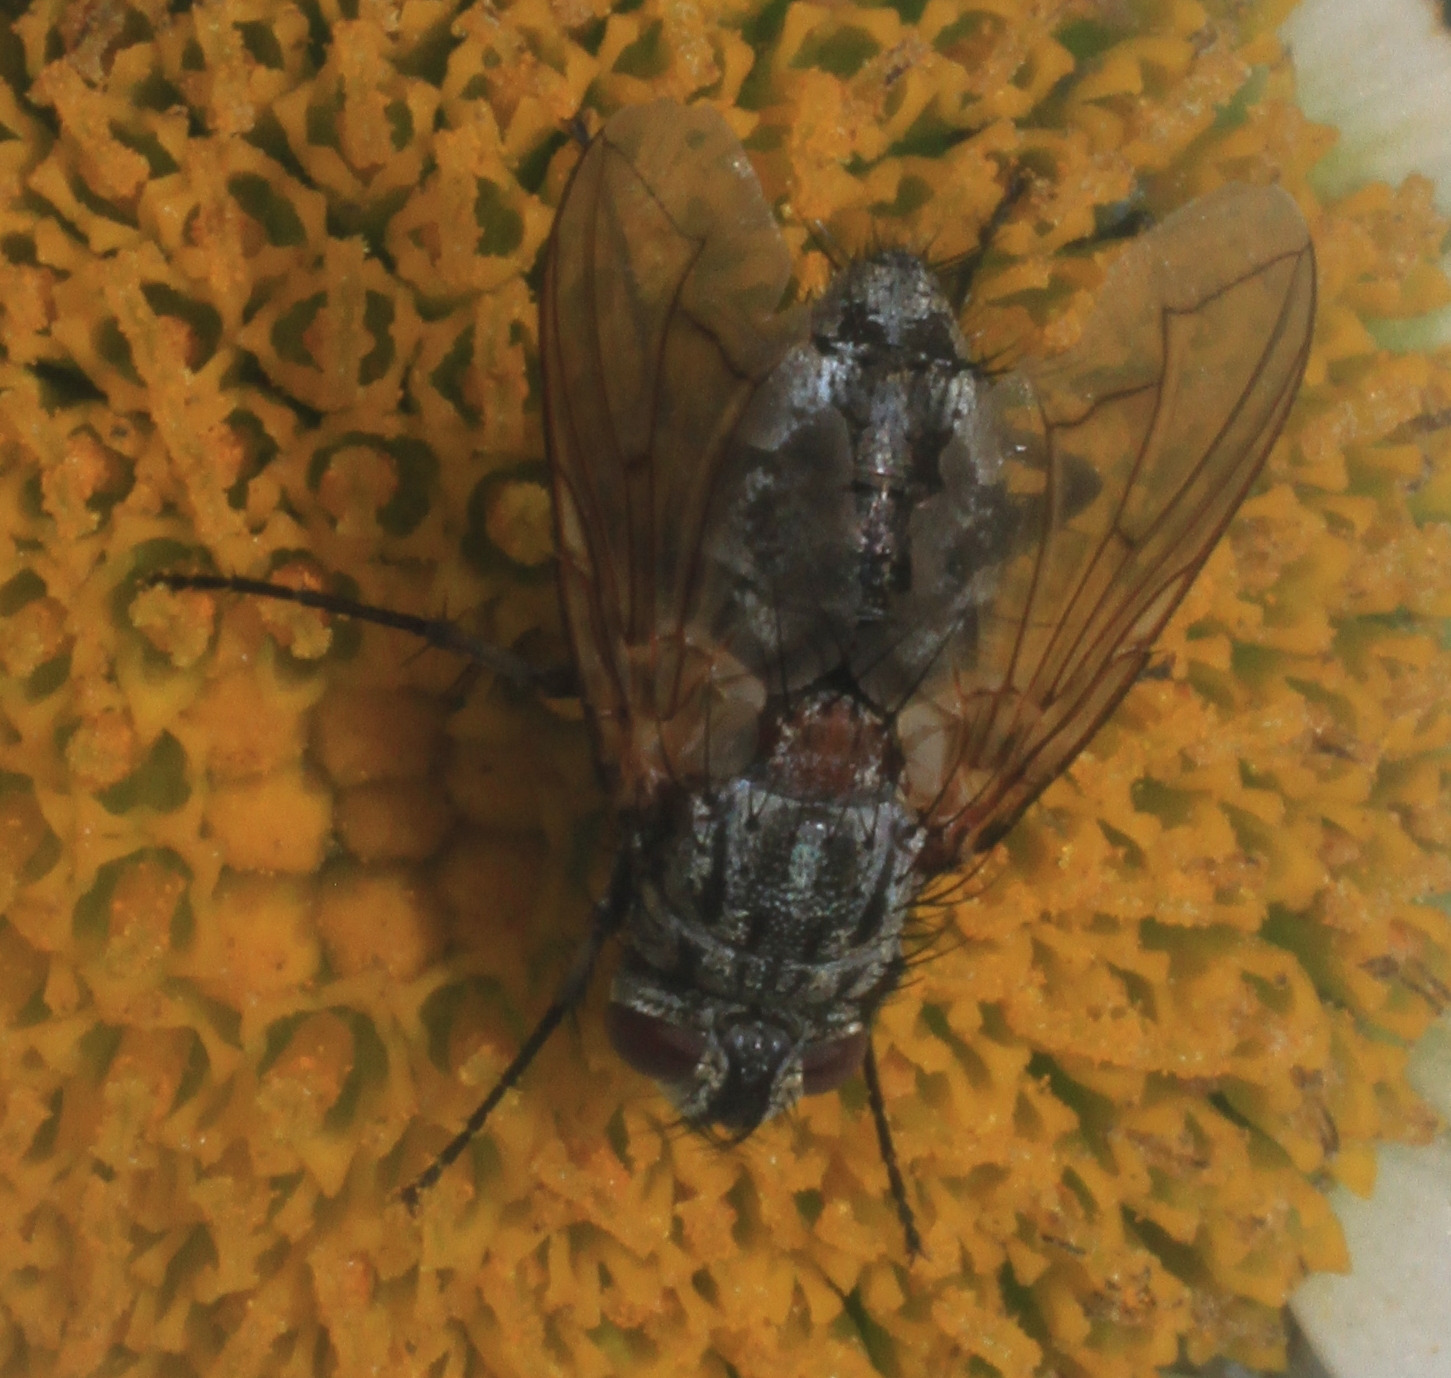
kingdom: Animalia
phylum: Arthropoda
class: Insecta
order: Diptera
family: Tachinidae
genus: Estheria
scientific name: Estheria cristata
